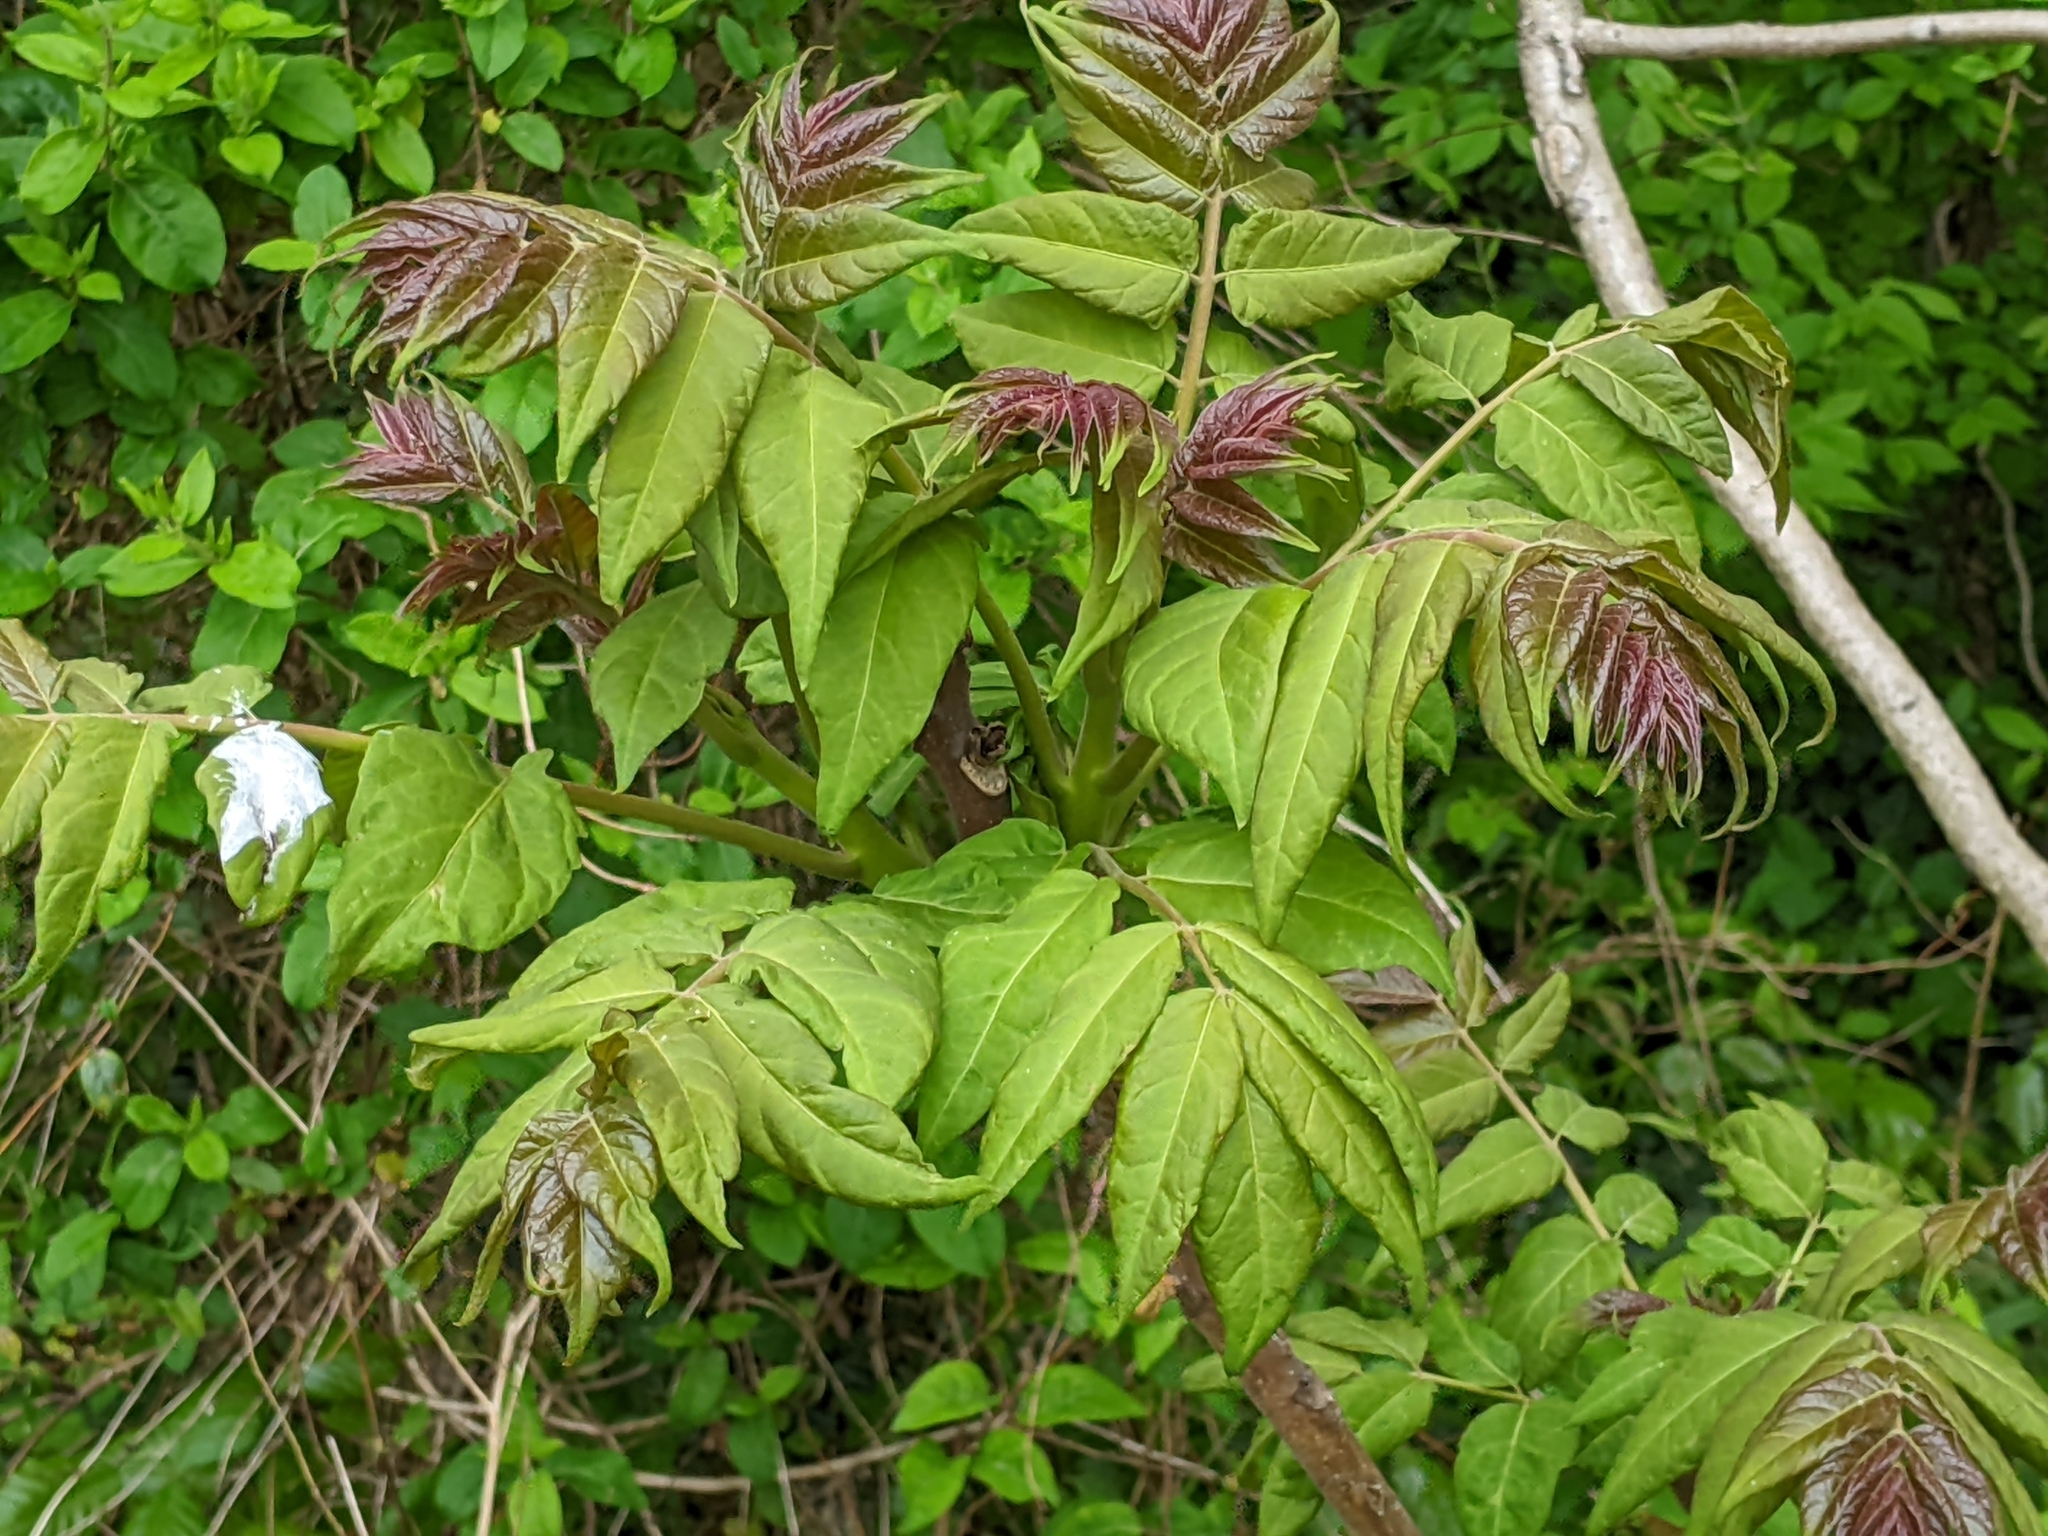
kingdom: Plantae
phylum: Tracheophyta
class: Magnoliopsida
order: Sapindales
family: Simaroubaceae
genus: Ailanthus
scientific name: Ailanthus altissima
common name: Tree-of-heaven
